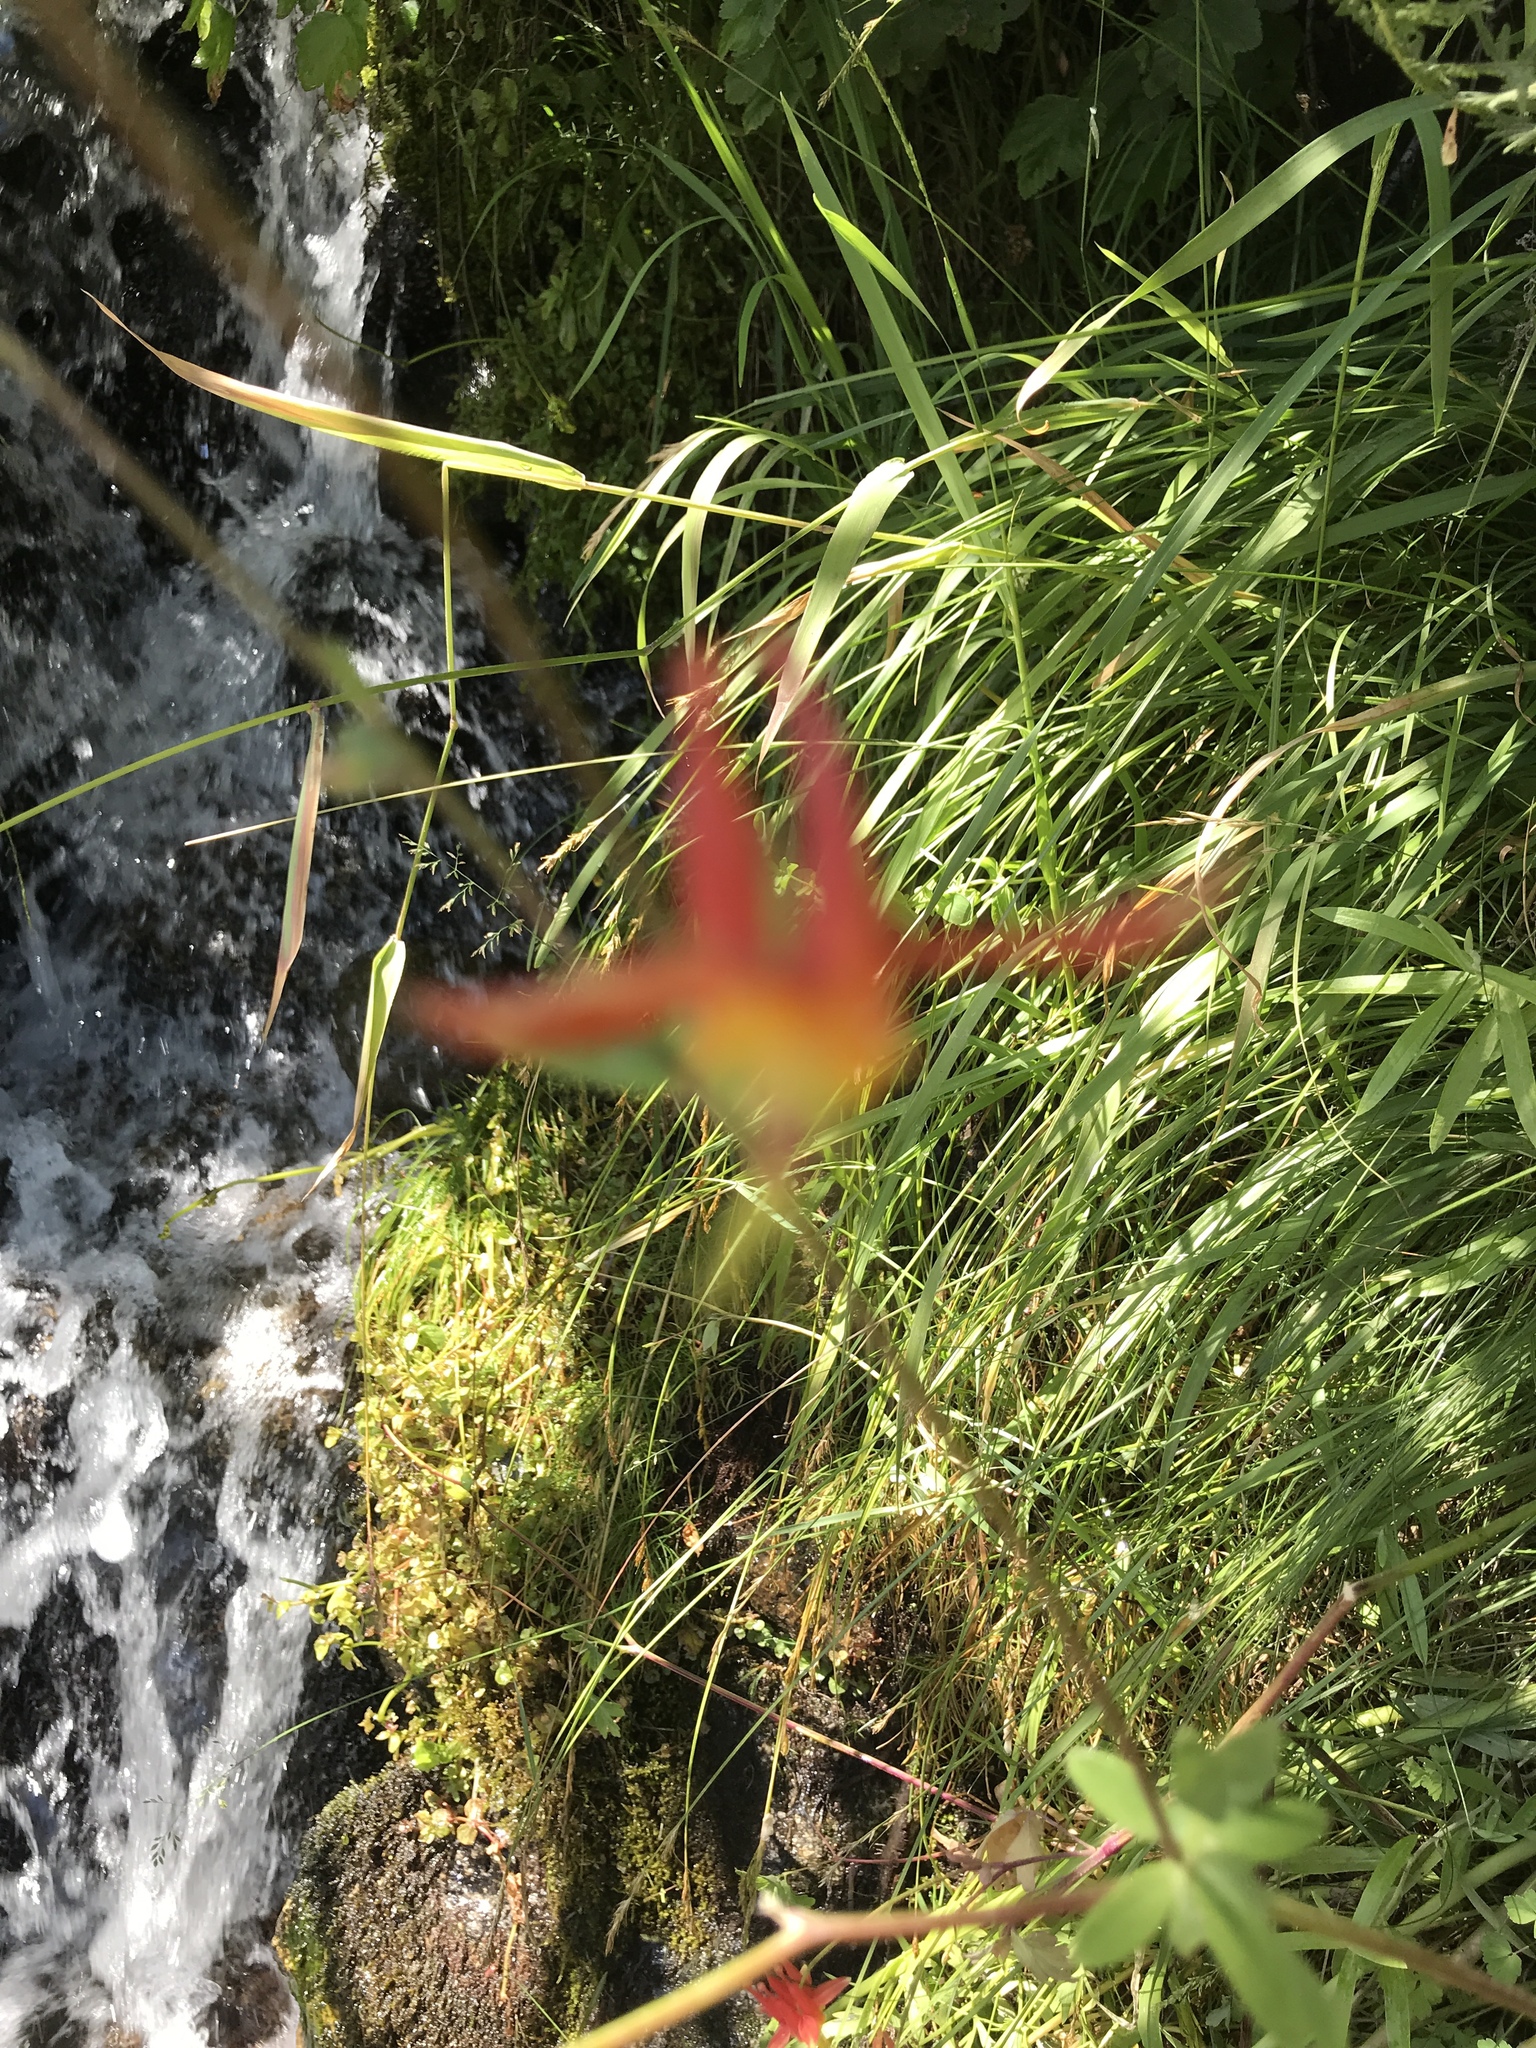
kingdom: Plantae
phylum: Tracheophyta
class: Magnoliopsida
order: Ranunculales
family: Ranunculaceae
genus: Aquilegia
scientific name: Aquilegia formosa
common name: Sitka columbine
